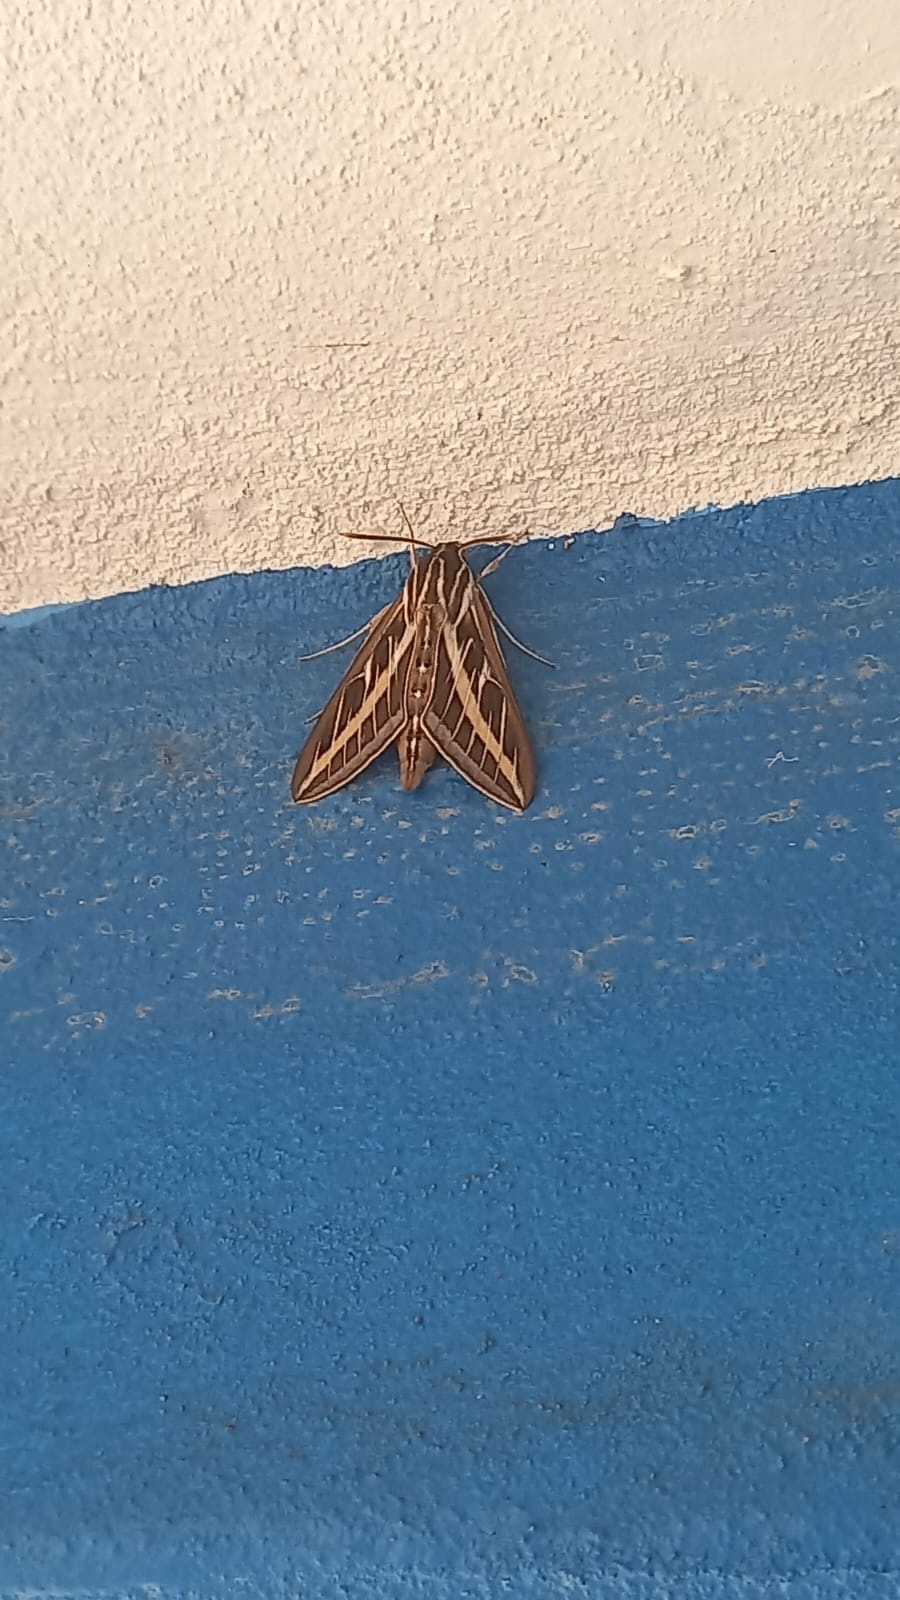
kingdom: Animalia
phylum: Arthropoda
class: Insecta
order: Lepidoptera
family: Sphingidae
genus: Hyles
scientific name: Hyles lineata
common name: White-lined sphinx
